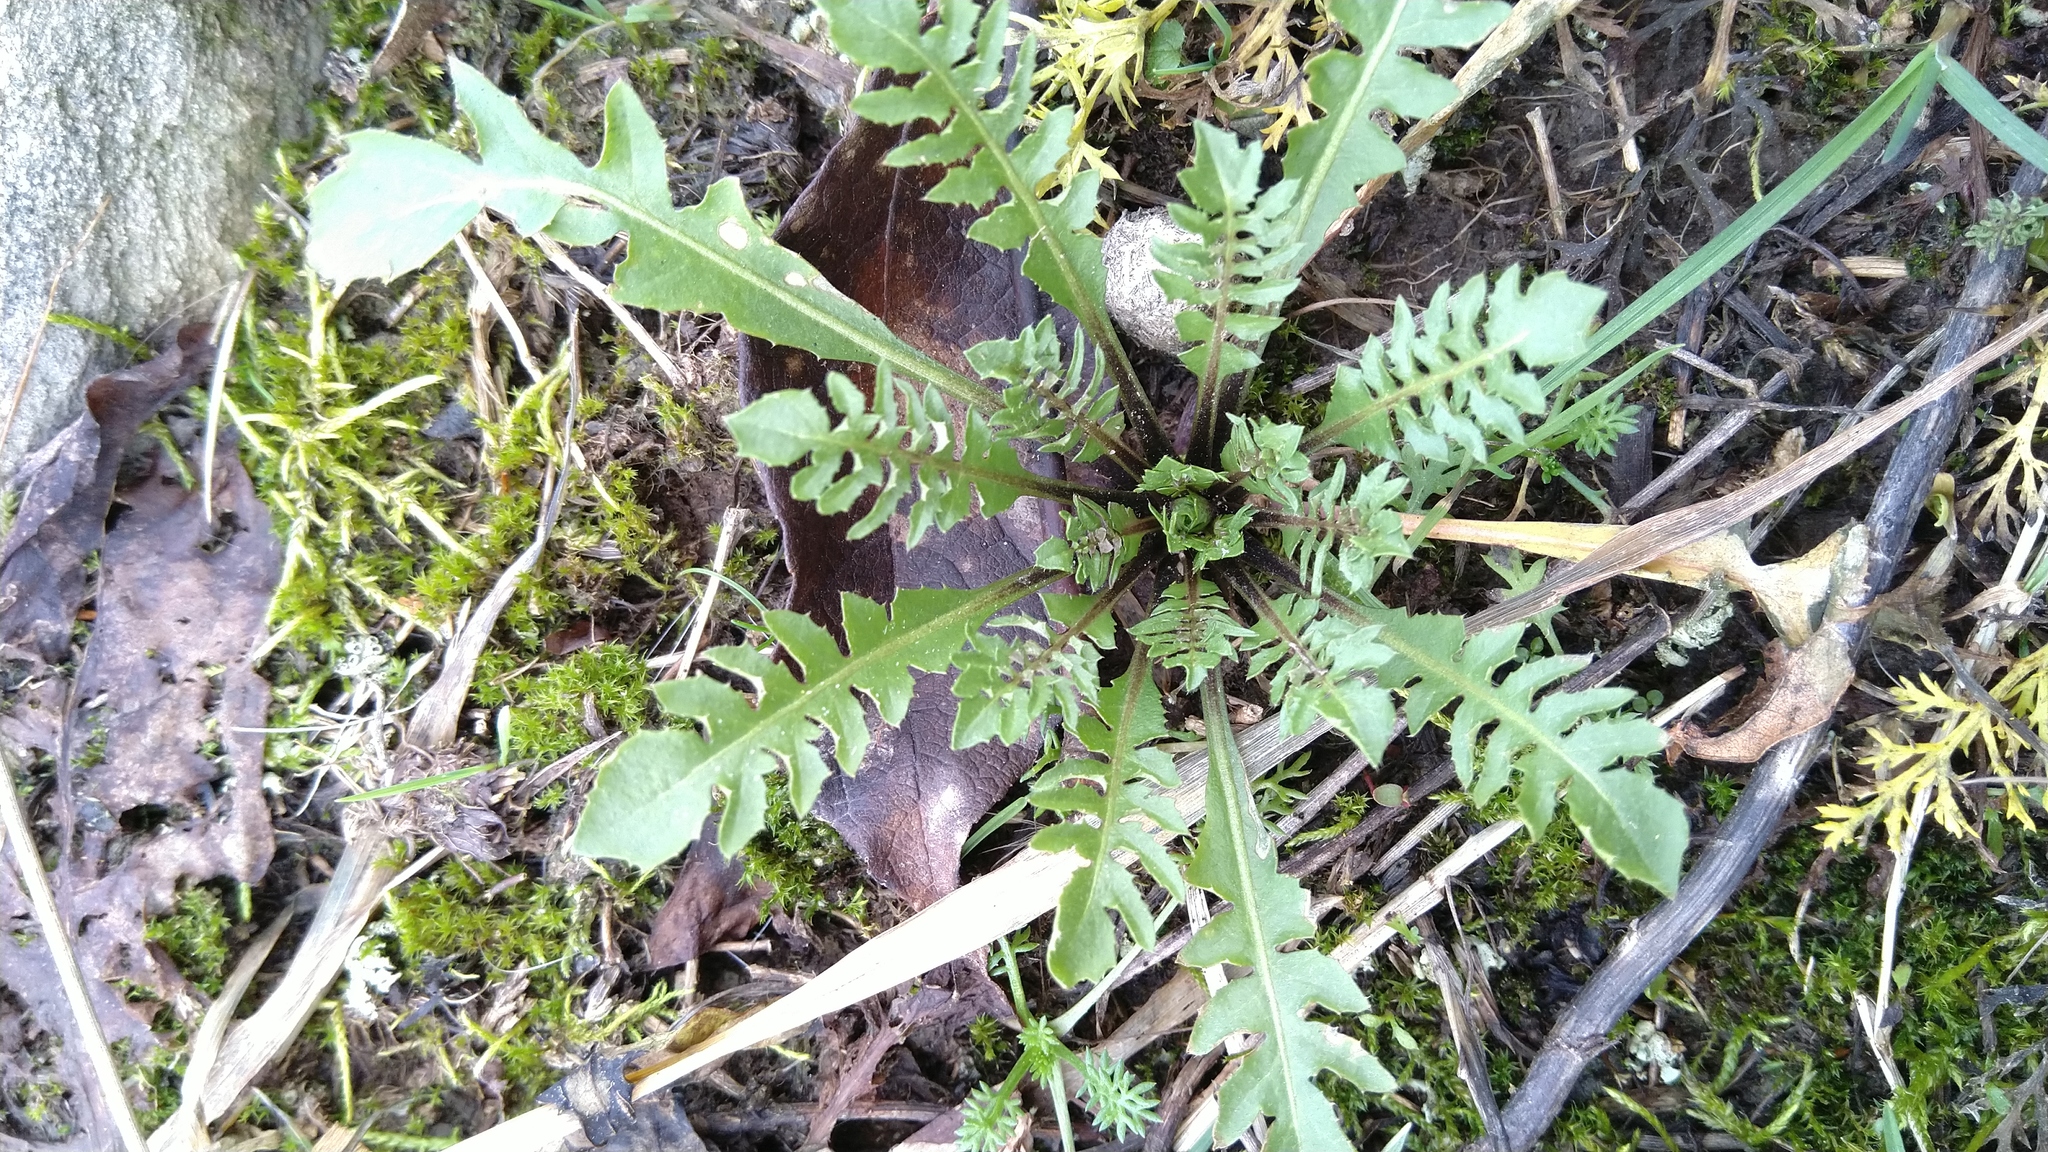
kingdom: Plantae
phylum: Tracheophyta
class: Magnoliopsida
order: Brassicales
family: Brassicaceae
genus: Capsella
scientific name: Capsella bursa-pastoris
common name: Shepherd's purse
